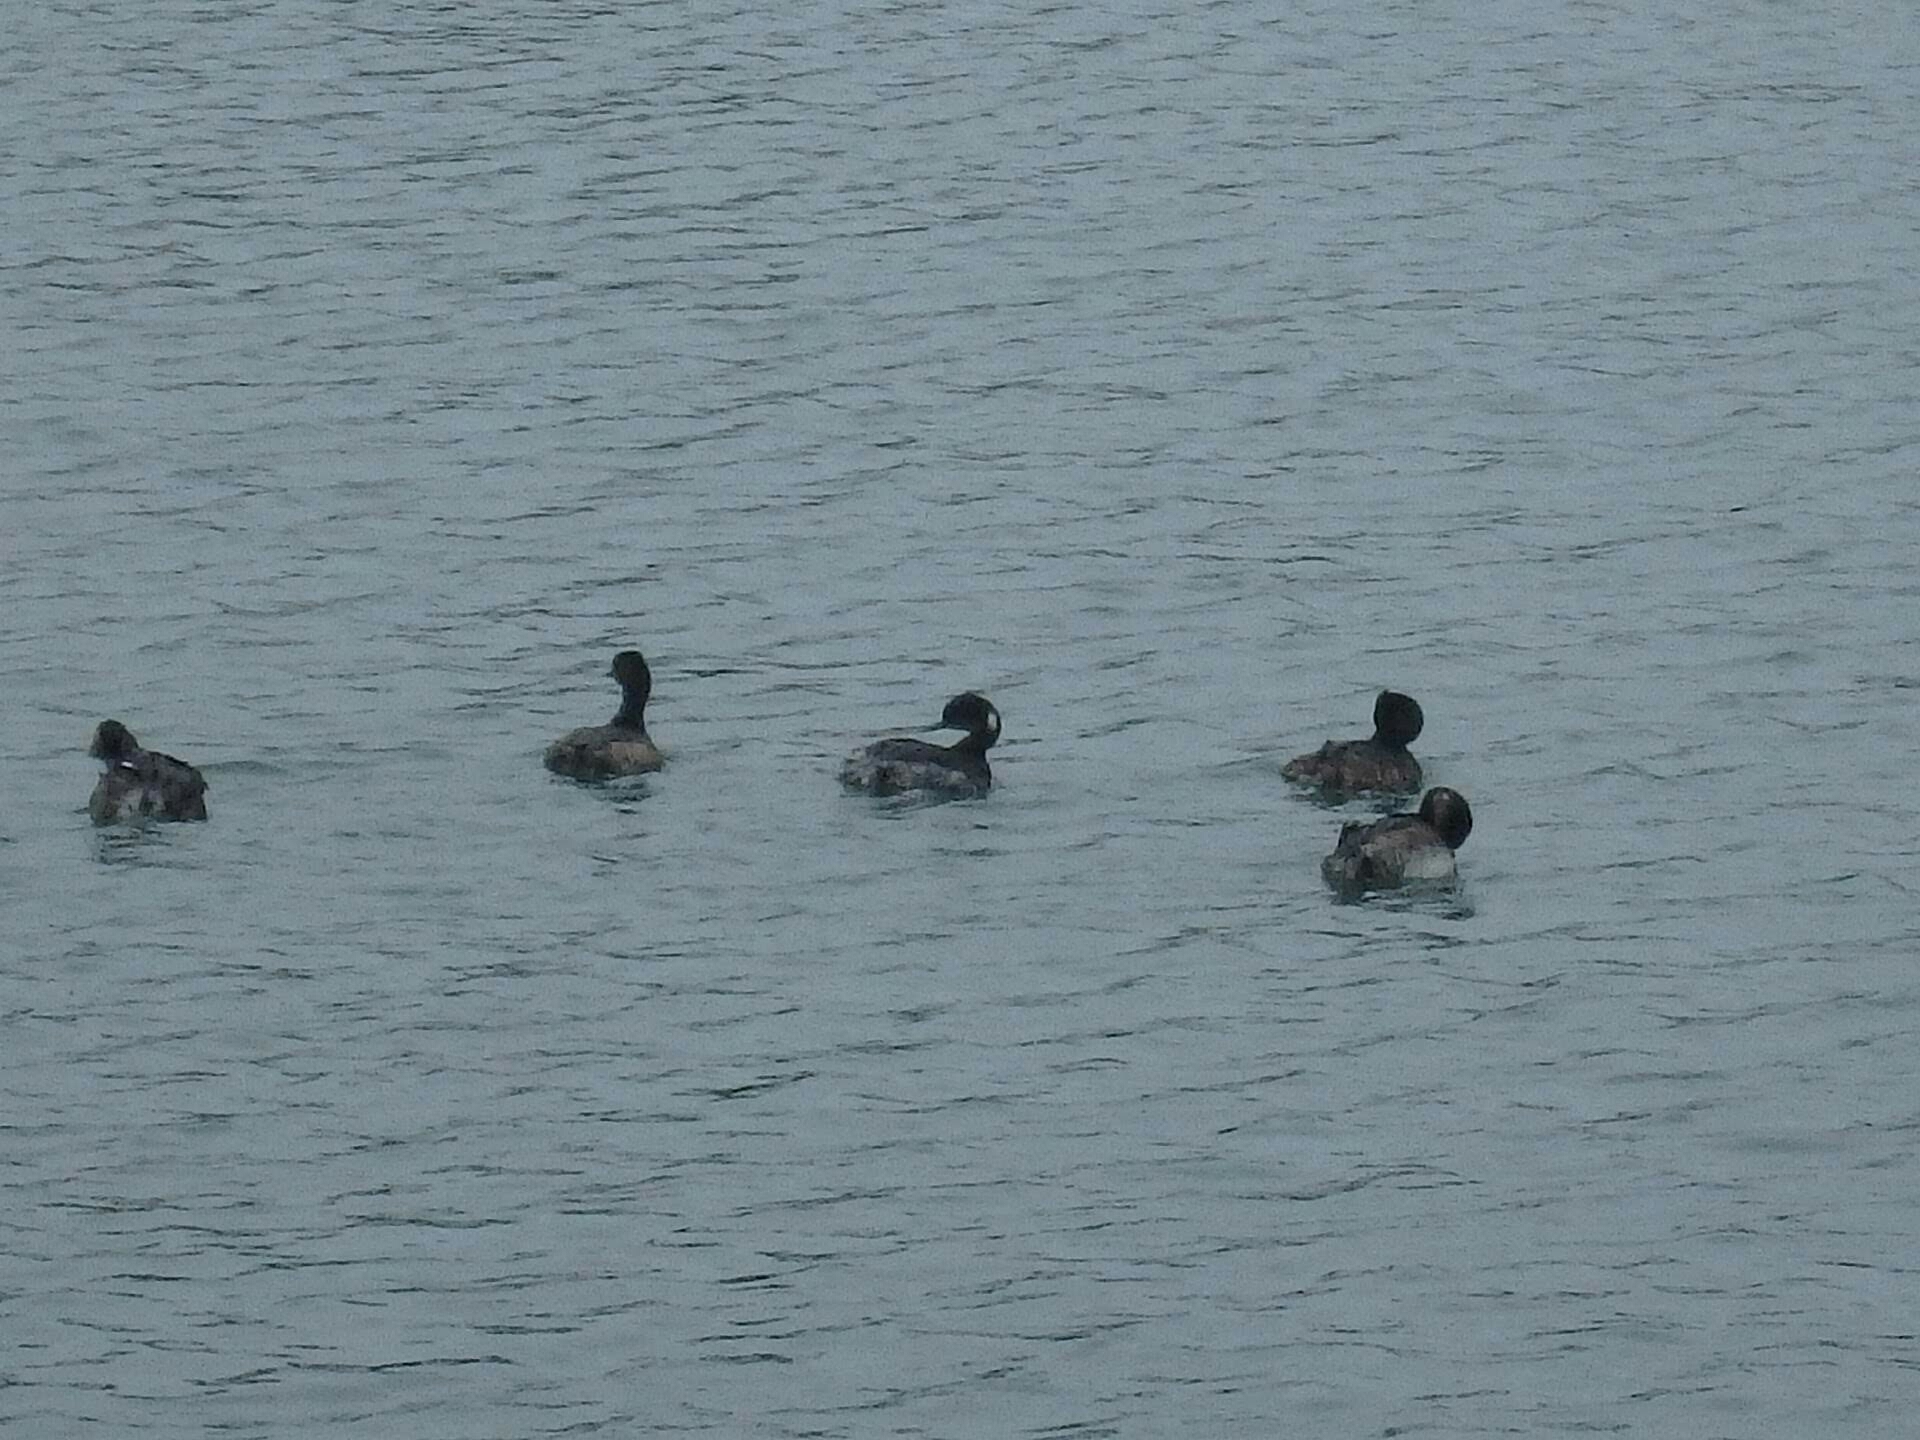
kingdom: Animalia
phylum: Chordata
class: Aves
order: Podicipediformes
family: Podicipedidae
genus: Podiceps
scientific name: Podiceps nigricollis
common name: Black-necked grebe
